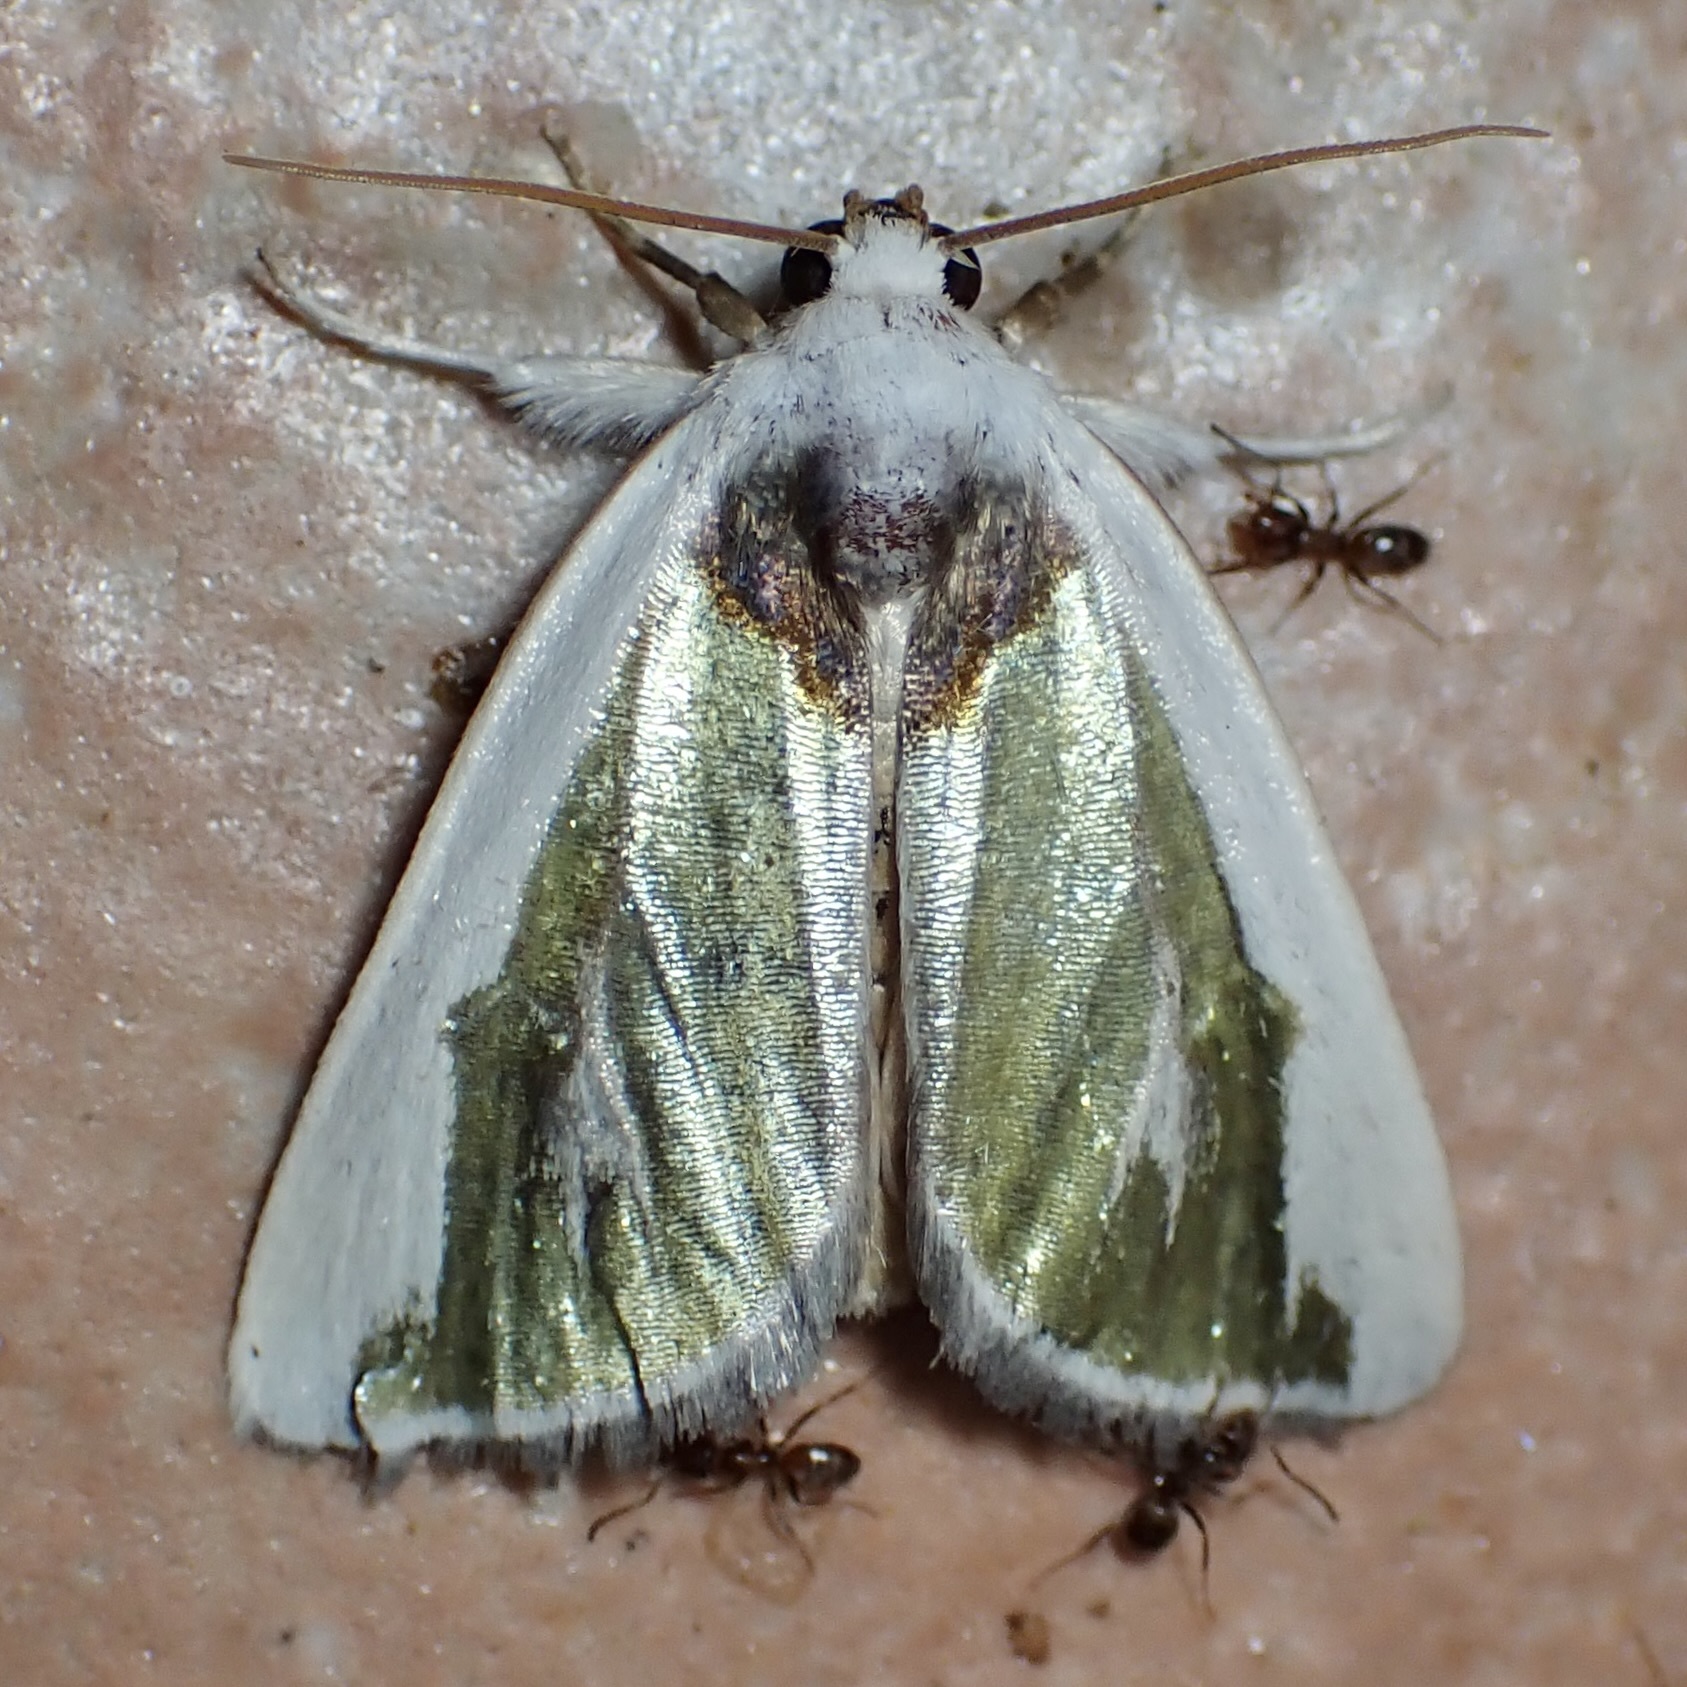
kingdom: Animalia
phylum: Arthropoda
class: Insecta
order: Lepidoptera
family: Noctuidae
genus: Neumoegenia
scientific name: Neumoegenia poetica
